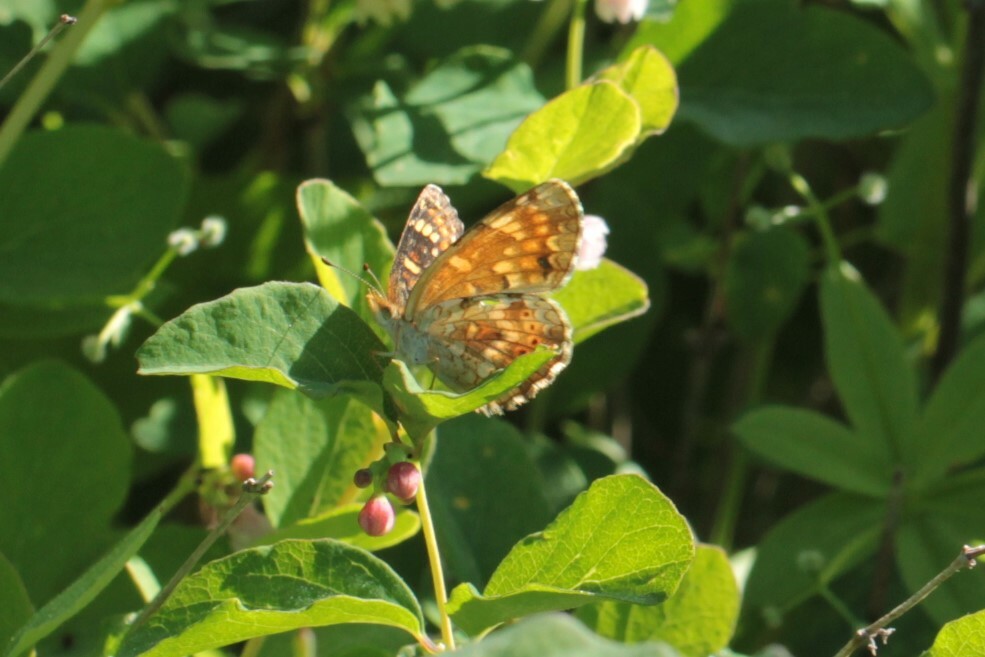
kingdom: Animalia
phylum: Arthropoda
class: Insecta
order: Lepidoptera
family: Nymphalidae
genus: Phyciodes
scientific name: Phyciodes tharos
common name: Pearl crescent
